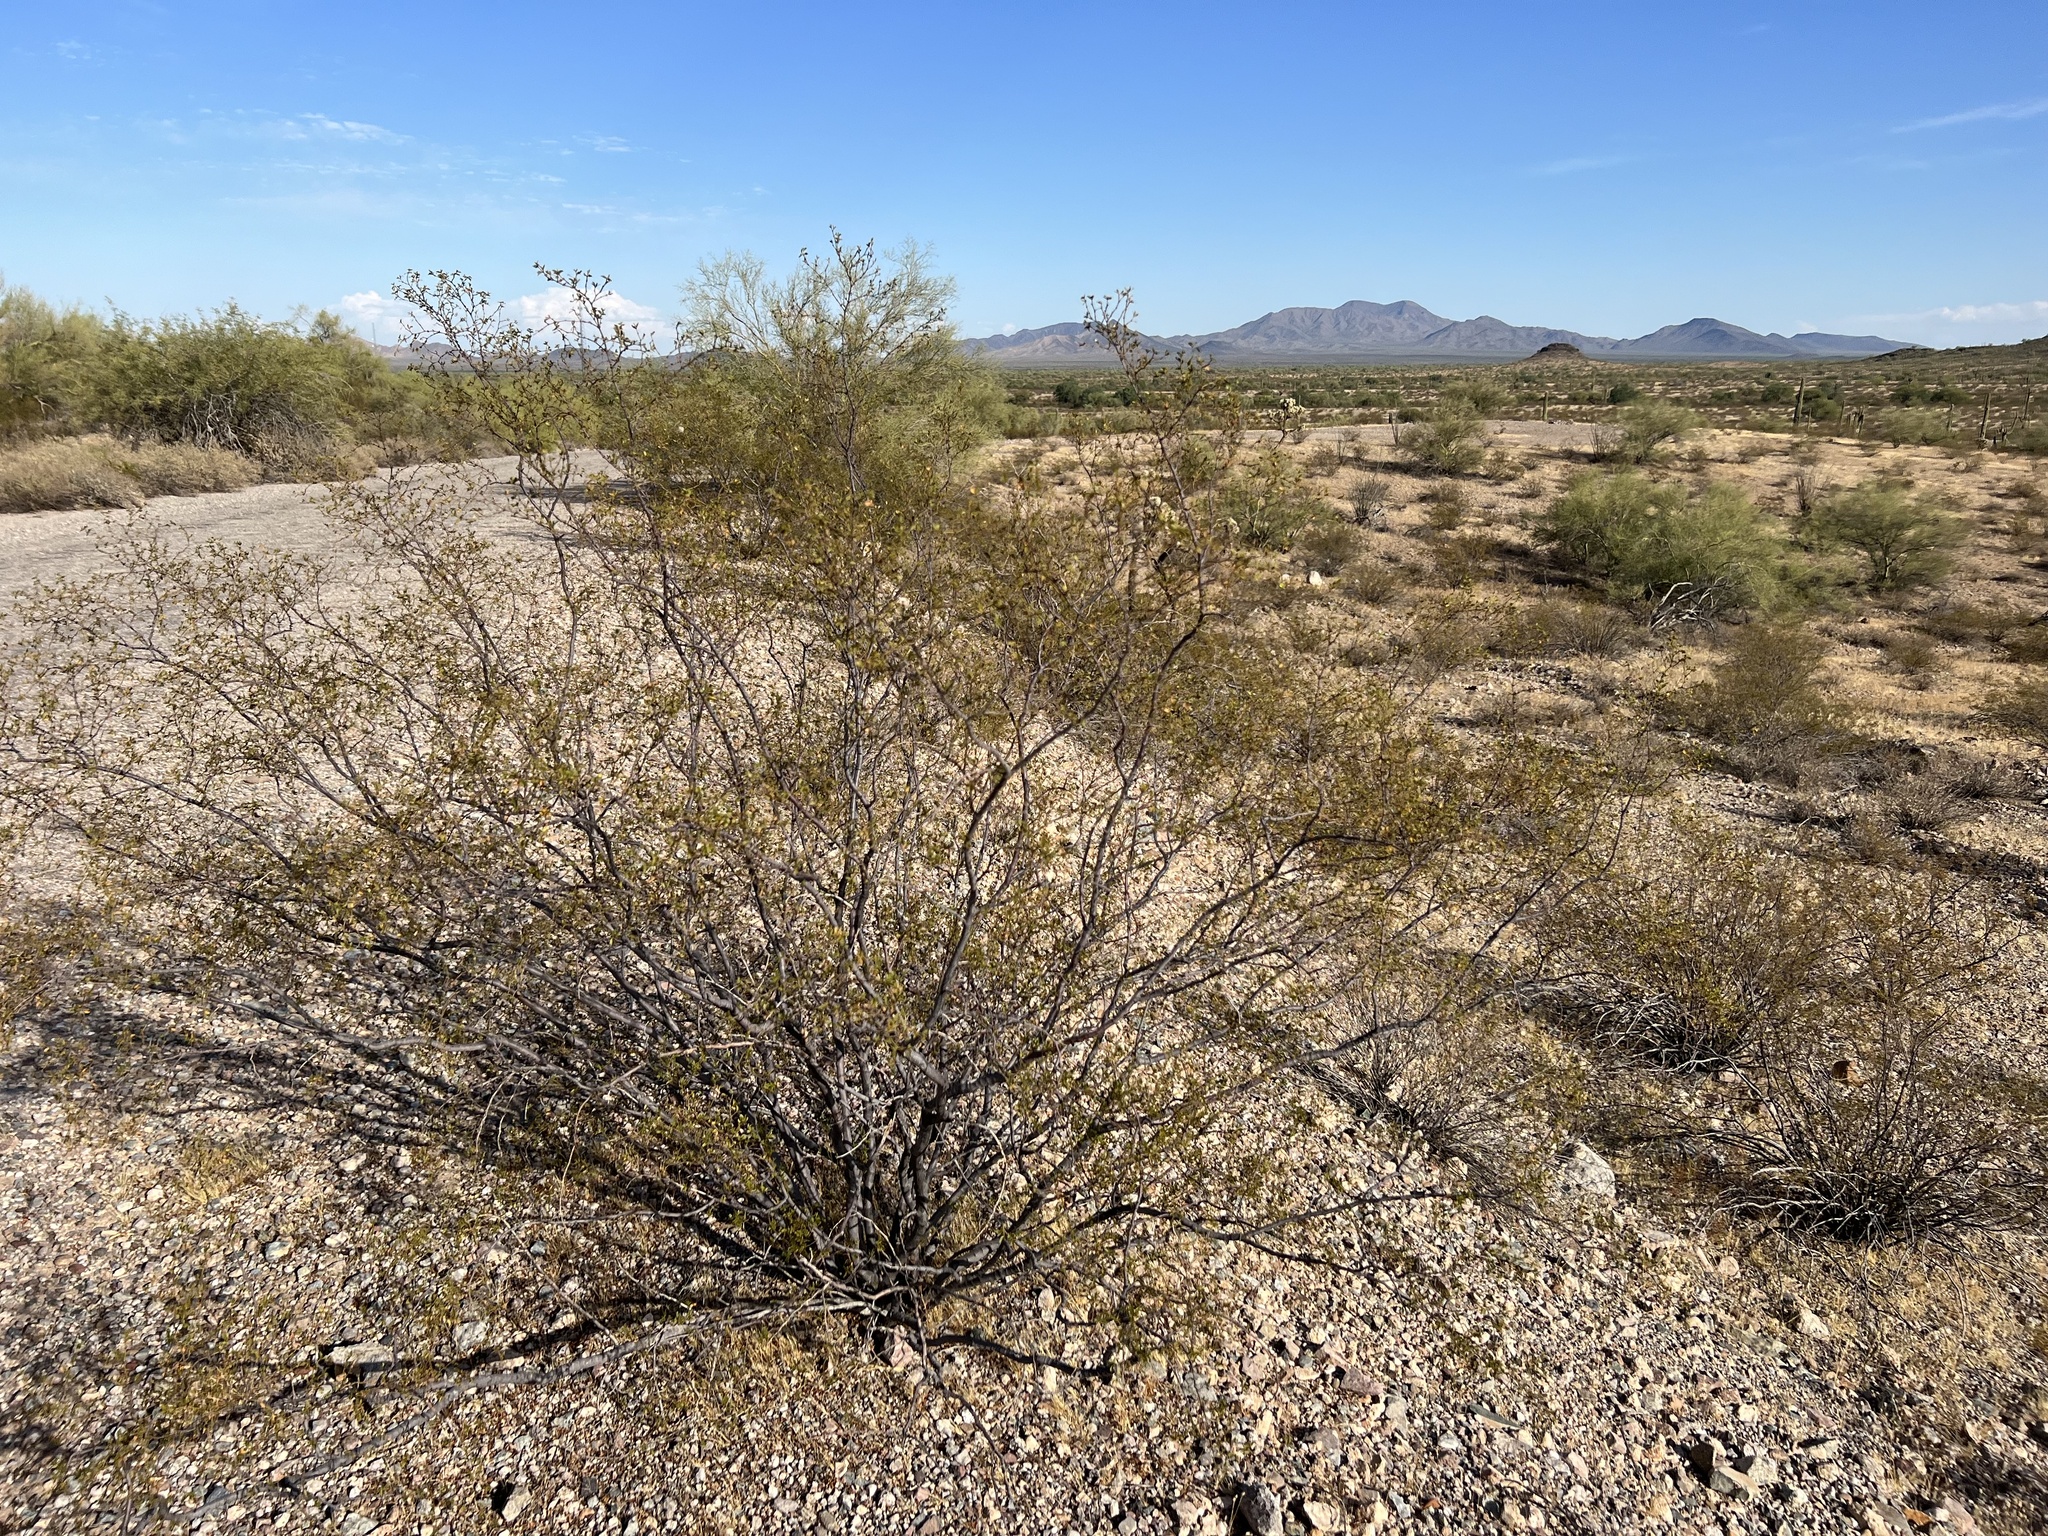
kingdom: Plantae
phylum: Tracheophyta
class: Magnoliopsida
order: Zygophyllales
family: Zygophyllaceae
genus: Larrea
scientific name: Larrea tridentata
